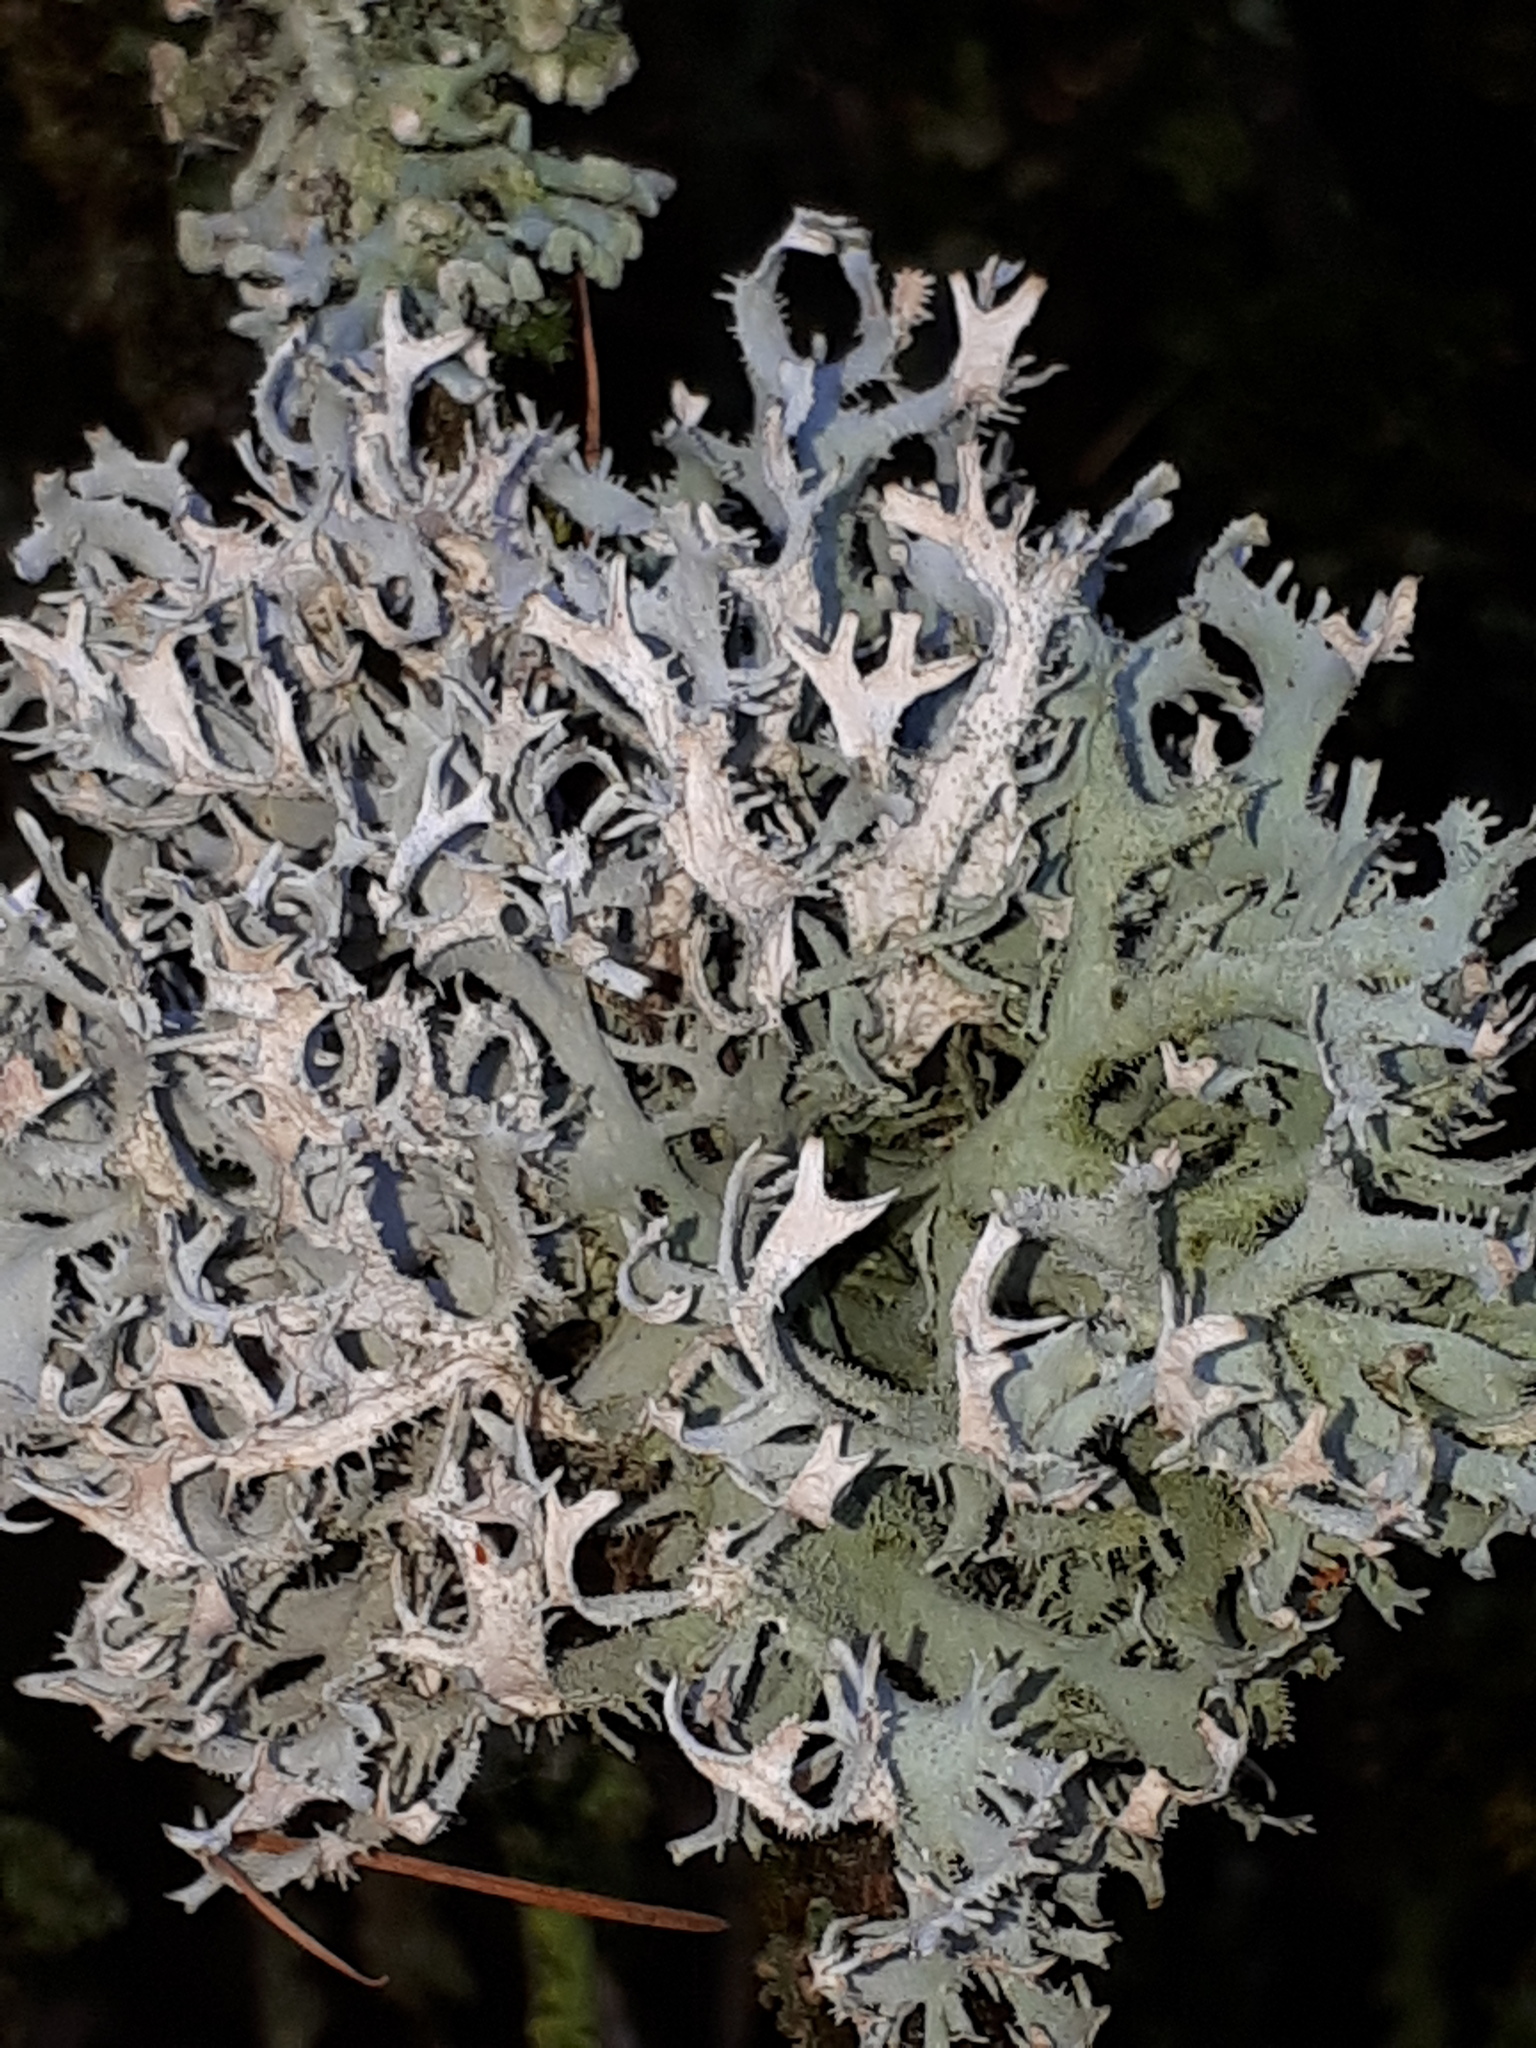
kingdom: Fungi
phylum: Ascomycota
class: Lecanoromycetes
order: Lecanorales
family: Parmeliaceae
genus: Pseudevernia
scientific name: Pseudevernia furfuracea
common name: Tree moss
